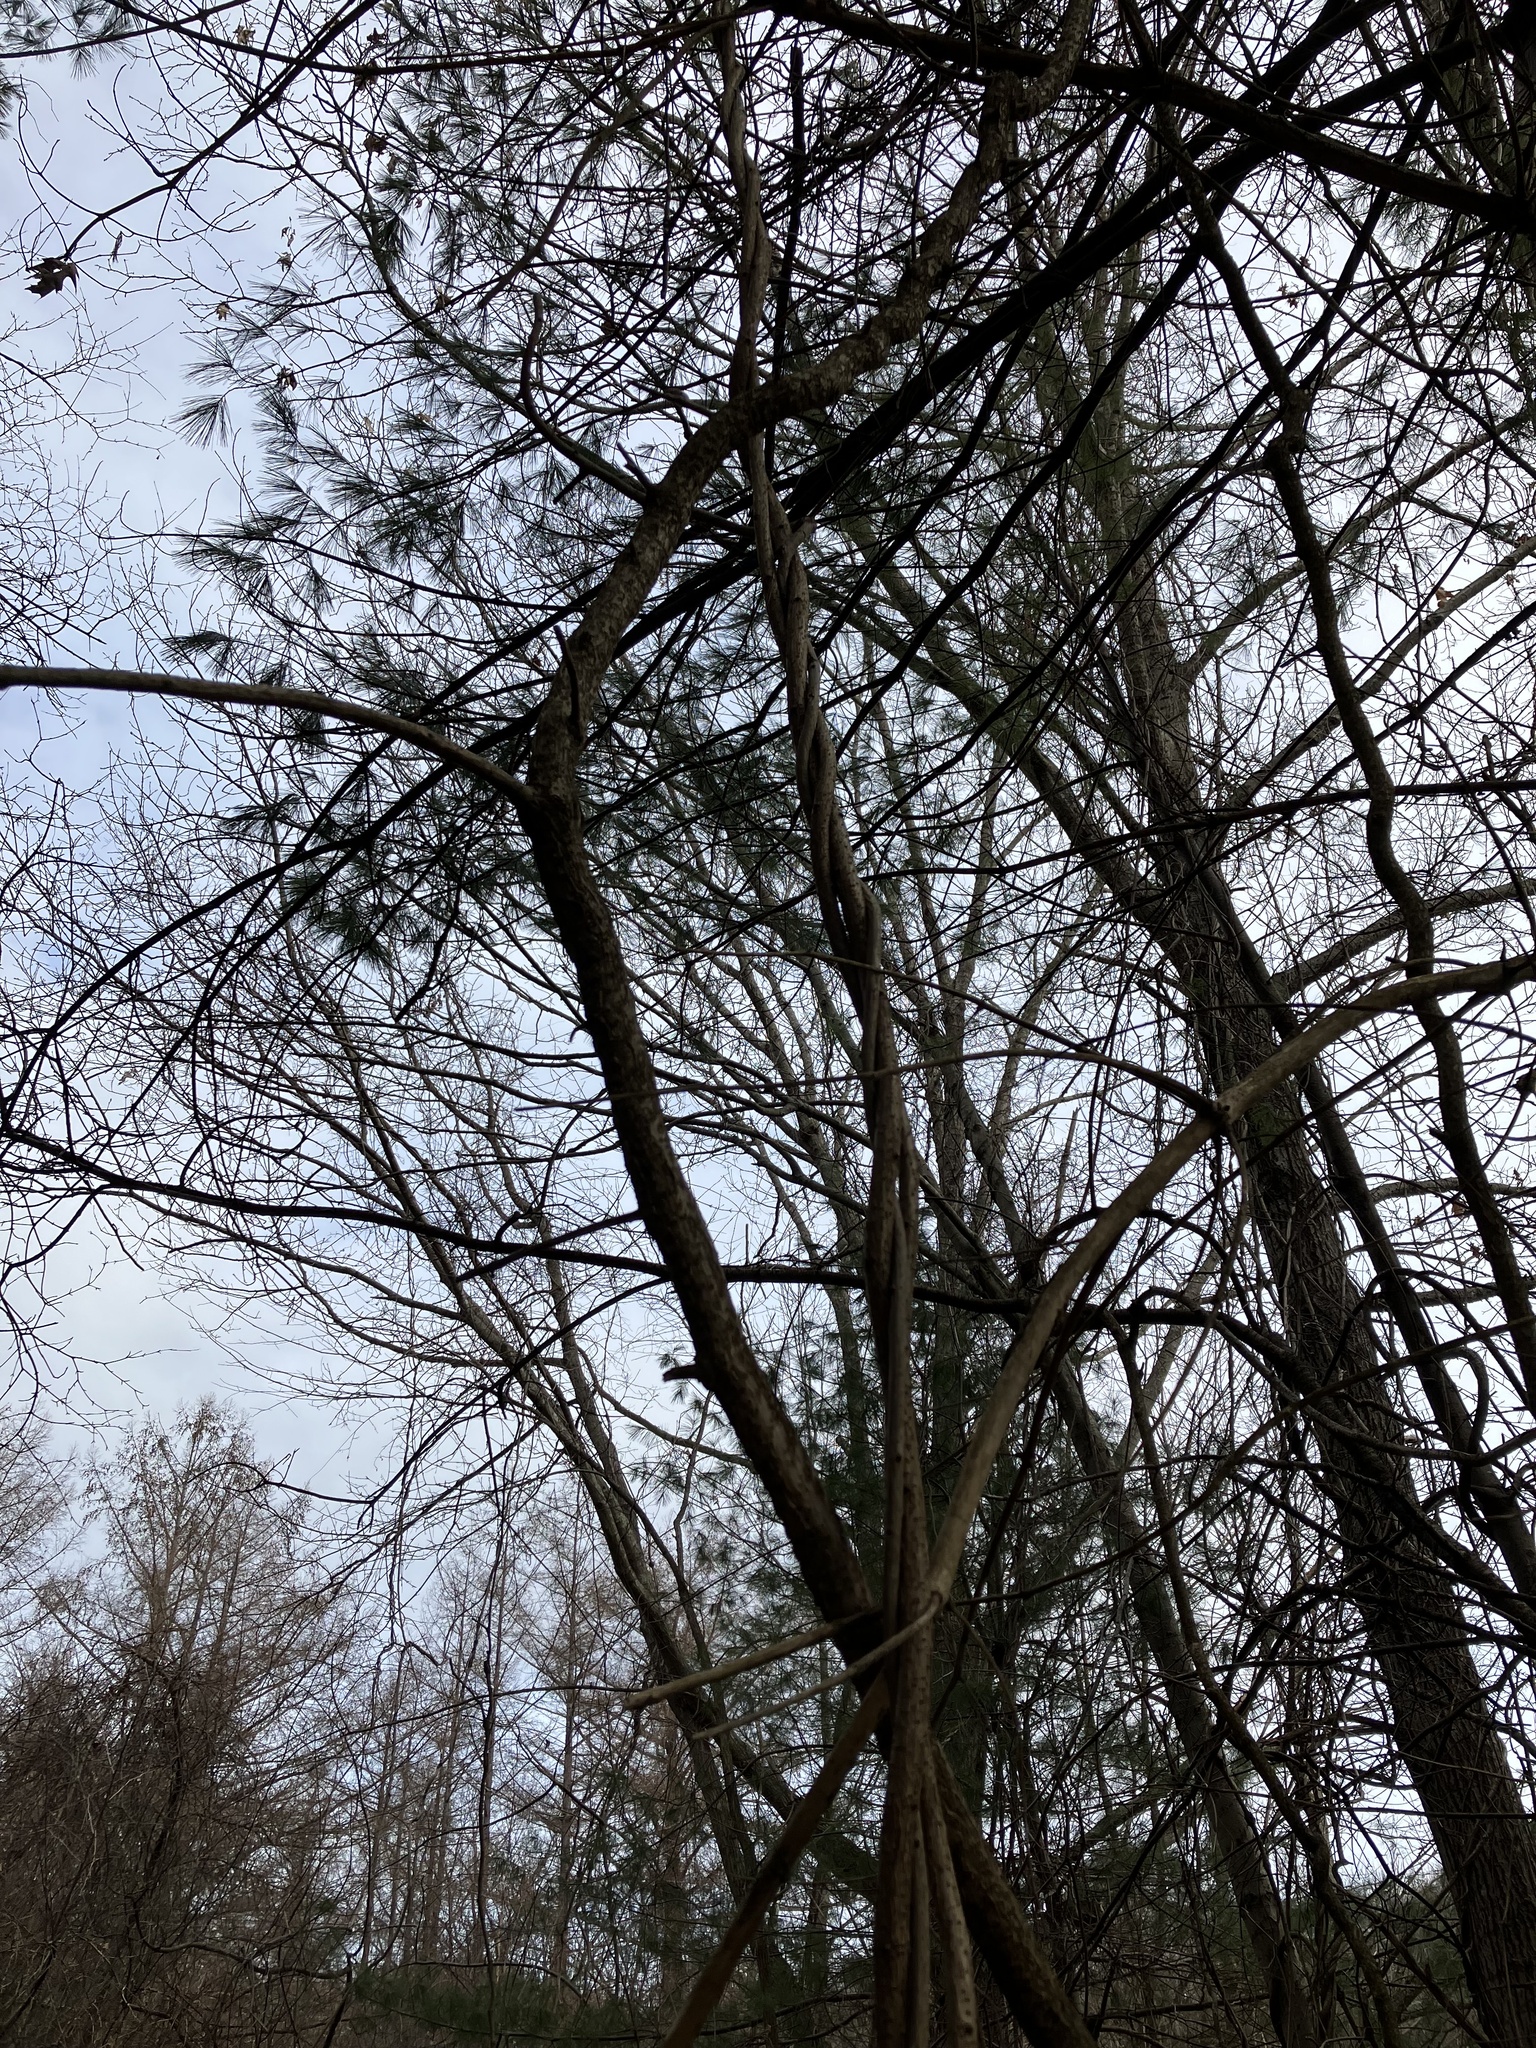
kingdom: Plantae
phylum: Tracheophyta
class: Magnoliopsida
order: Celastrales
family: Celastraceae
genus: Celastrus
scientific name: Celastrus orbiculatus
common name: Oriental bittersweet
